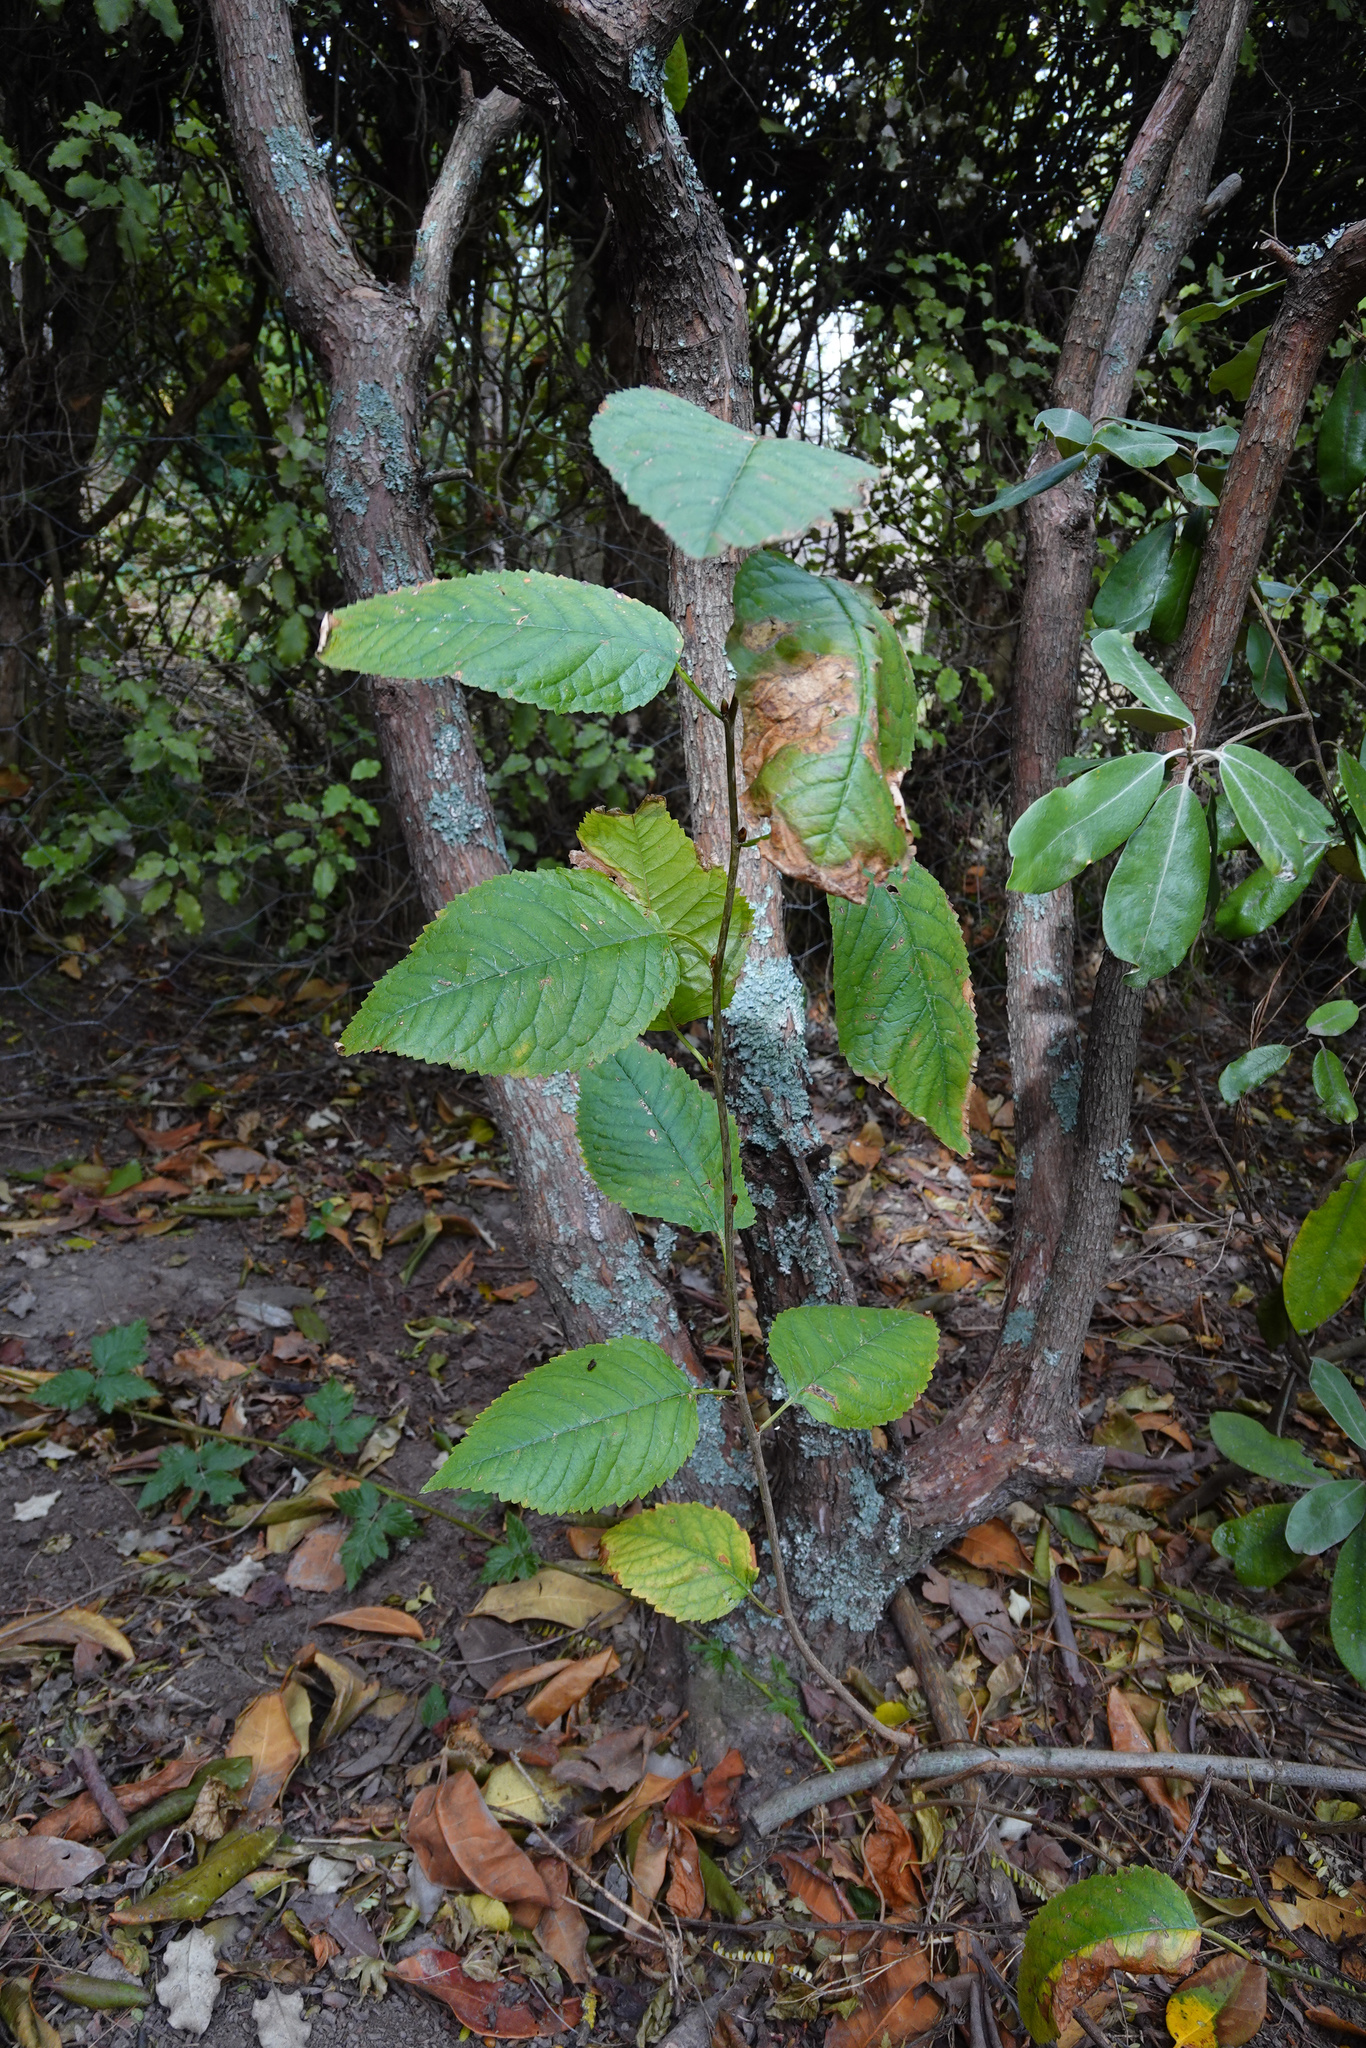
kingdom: Plantae
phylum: Tracheophyta
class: Magnoliopsida
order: Rosales
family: Rosaceae
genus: Prunus
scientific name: Prunus serrulata
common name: Japanese cherry
